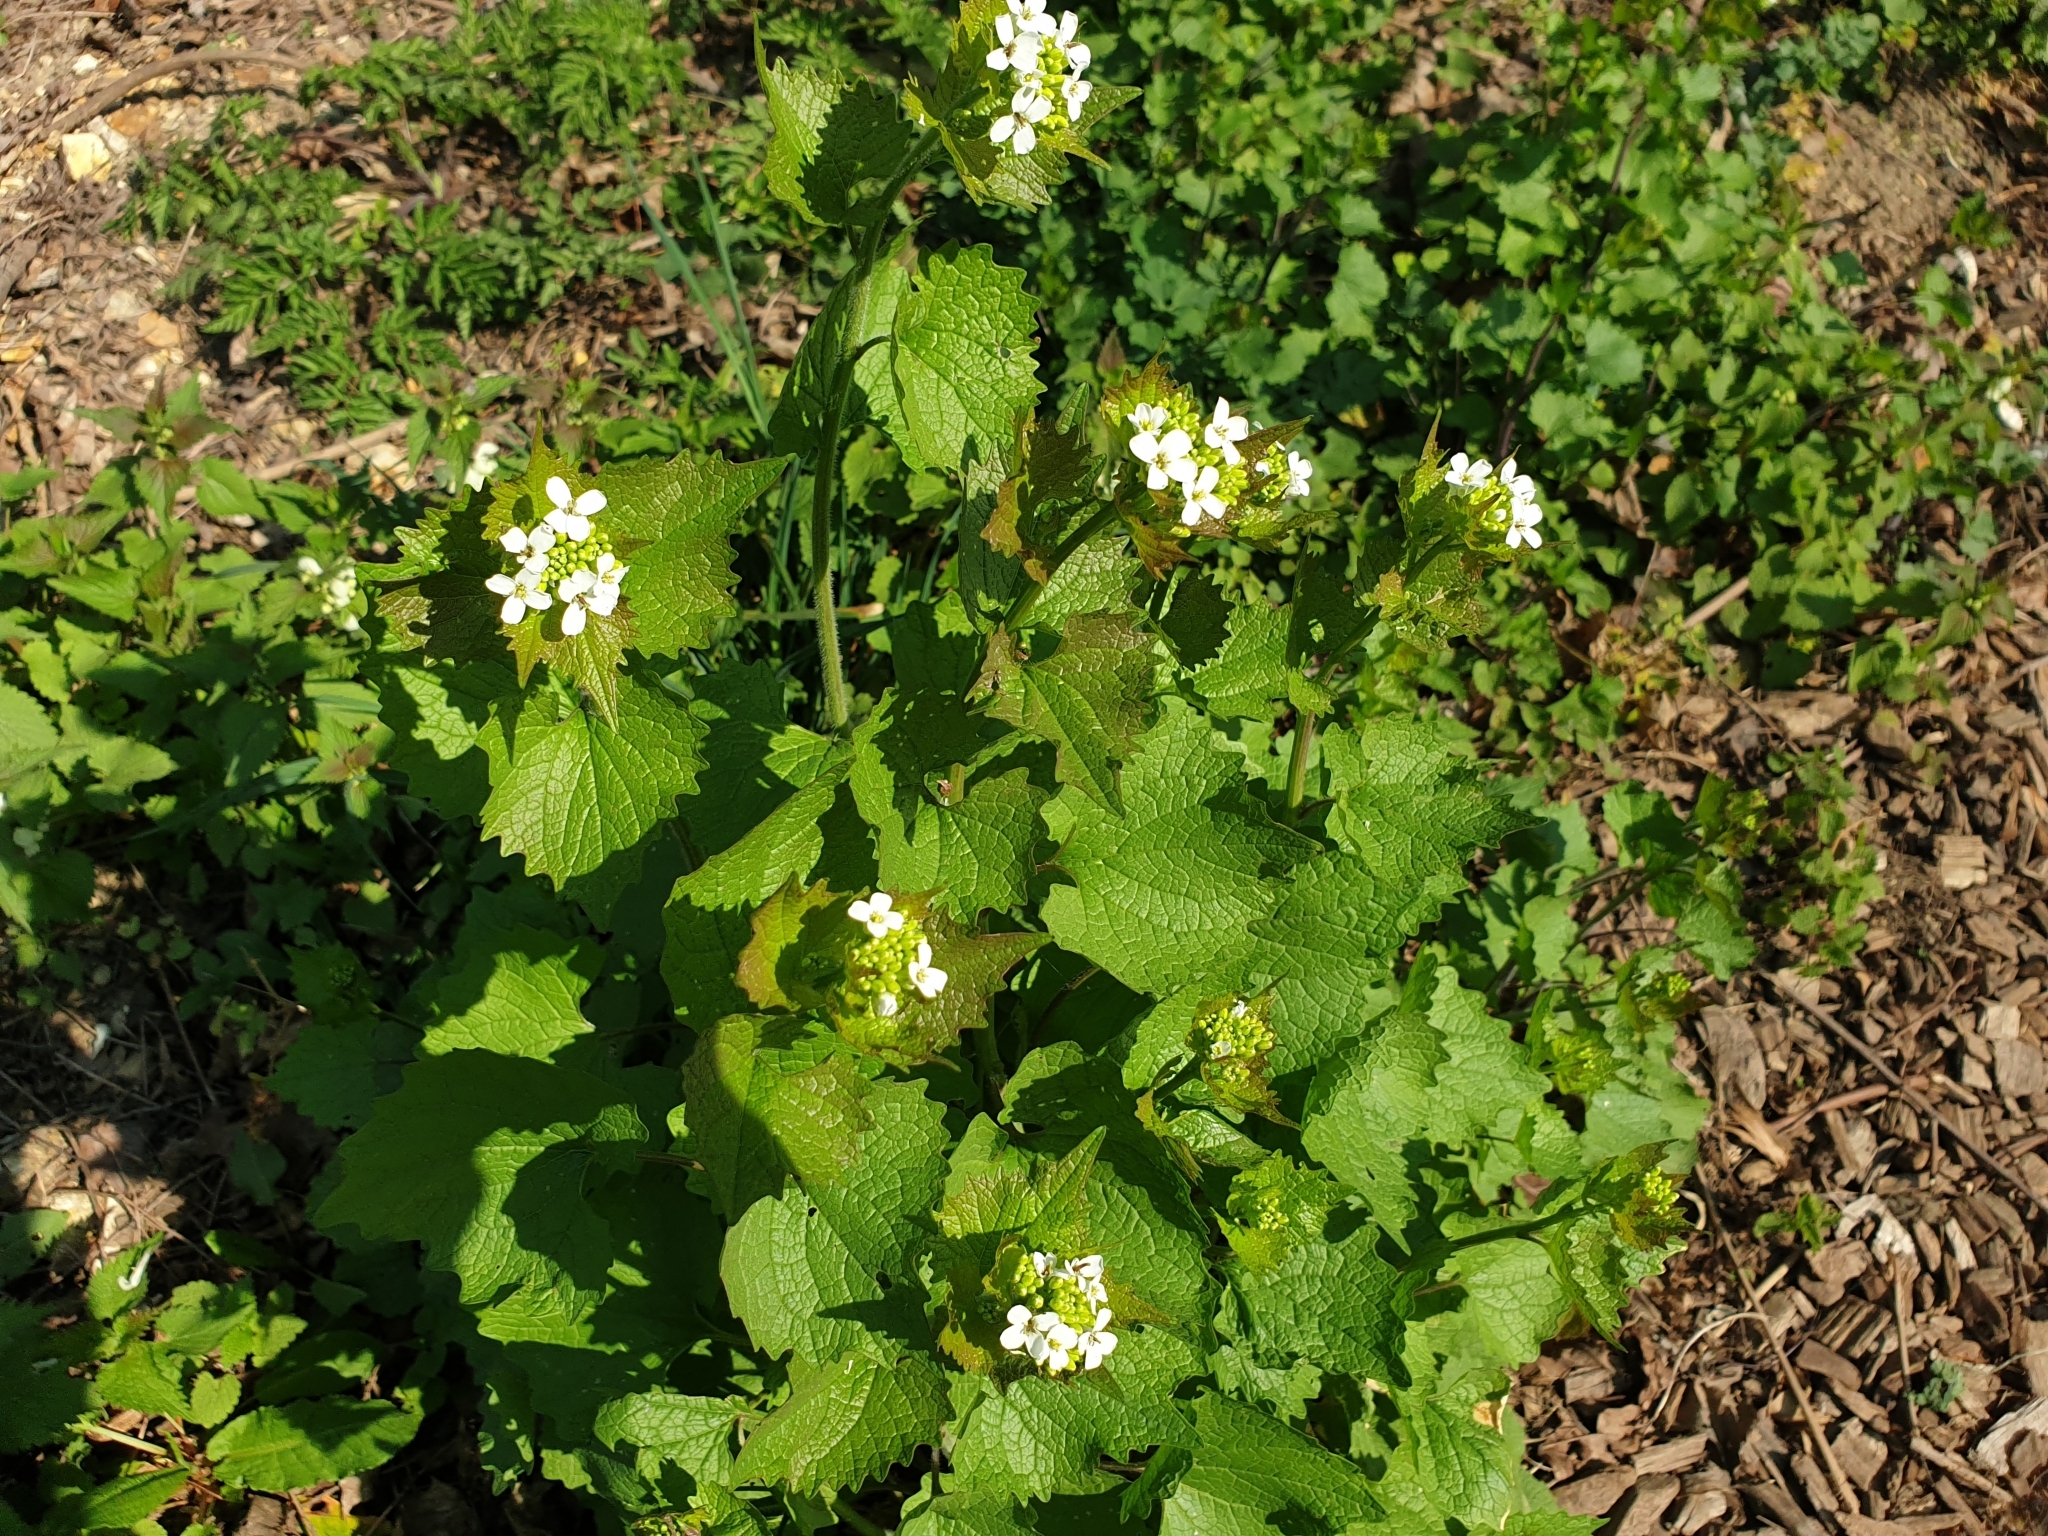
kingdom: Plantae
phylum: Tracheophyta
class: Magnoliopsida
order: Brassicales
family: Brassicaceae
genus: Alliaria
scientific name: Alliaria petiolata
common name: Garlic mustard
